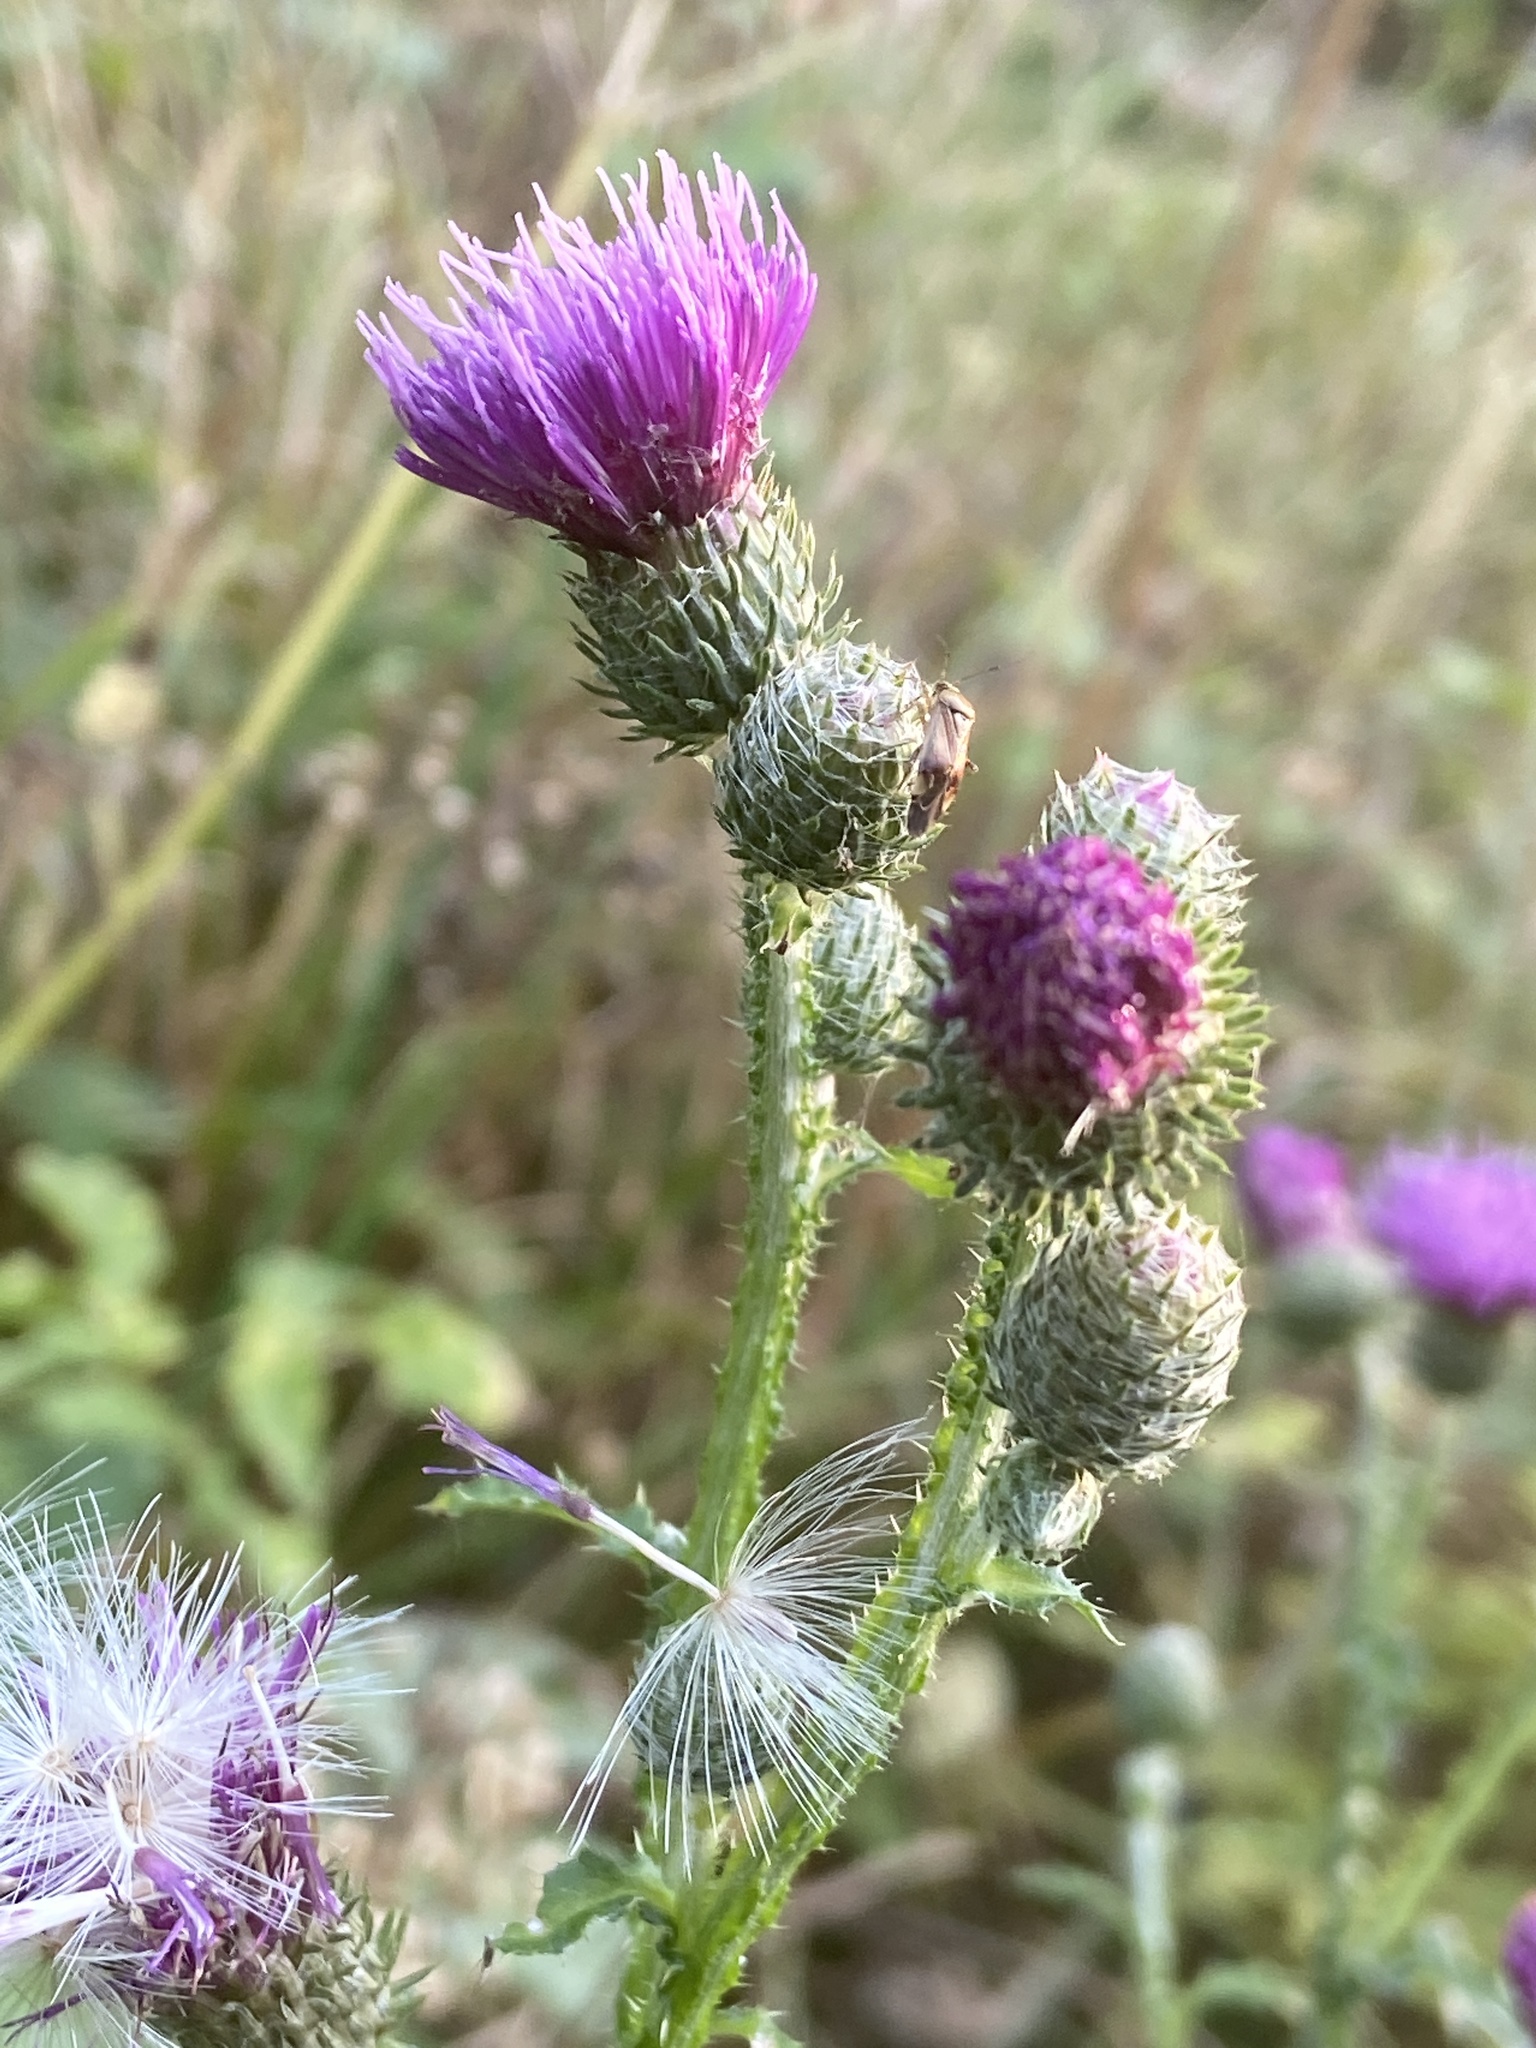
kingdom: Plantae
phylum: Tracheophyta
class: Magnoliopsida
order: Asterales
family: Asteraceae
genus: Carduus
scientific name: Carduus crispus
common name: Welted thistle
